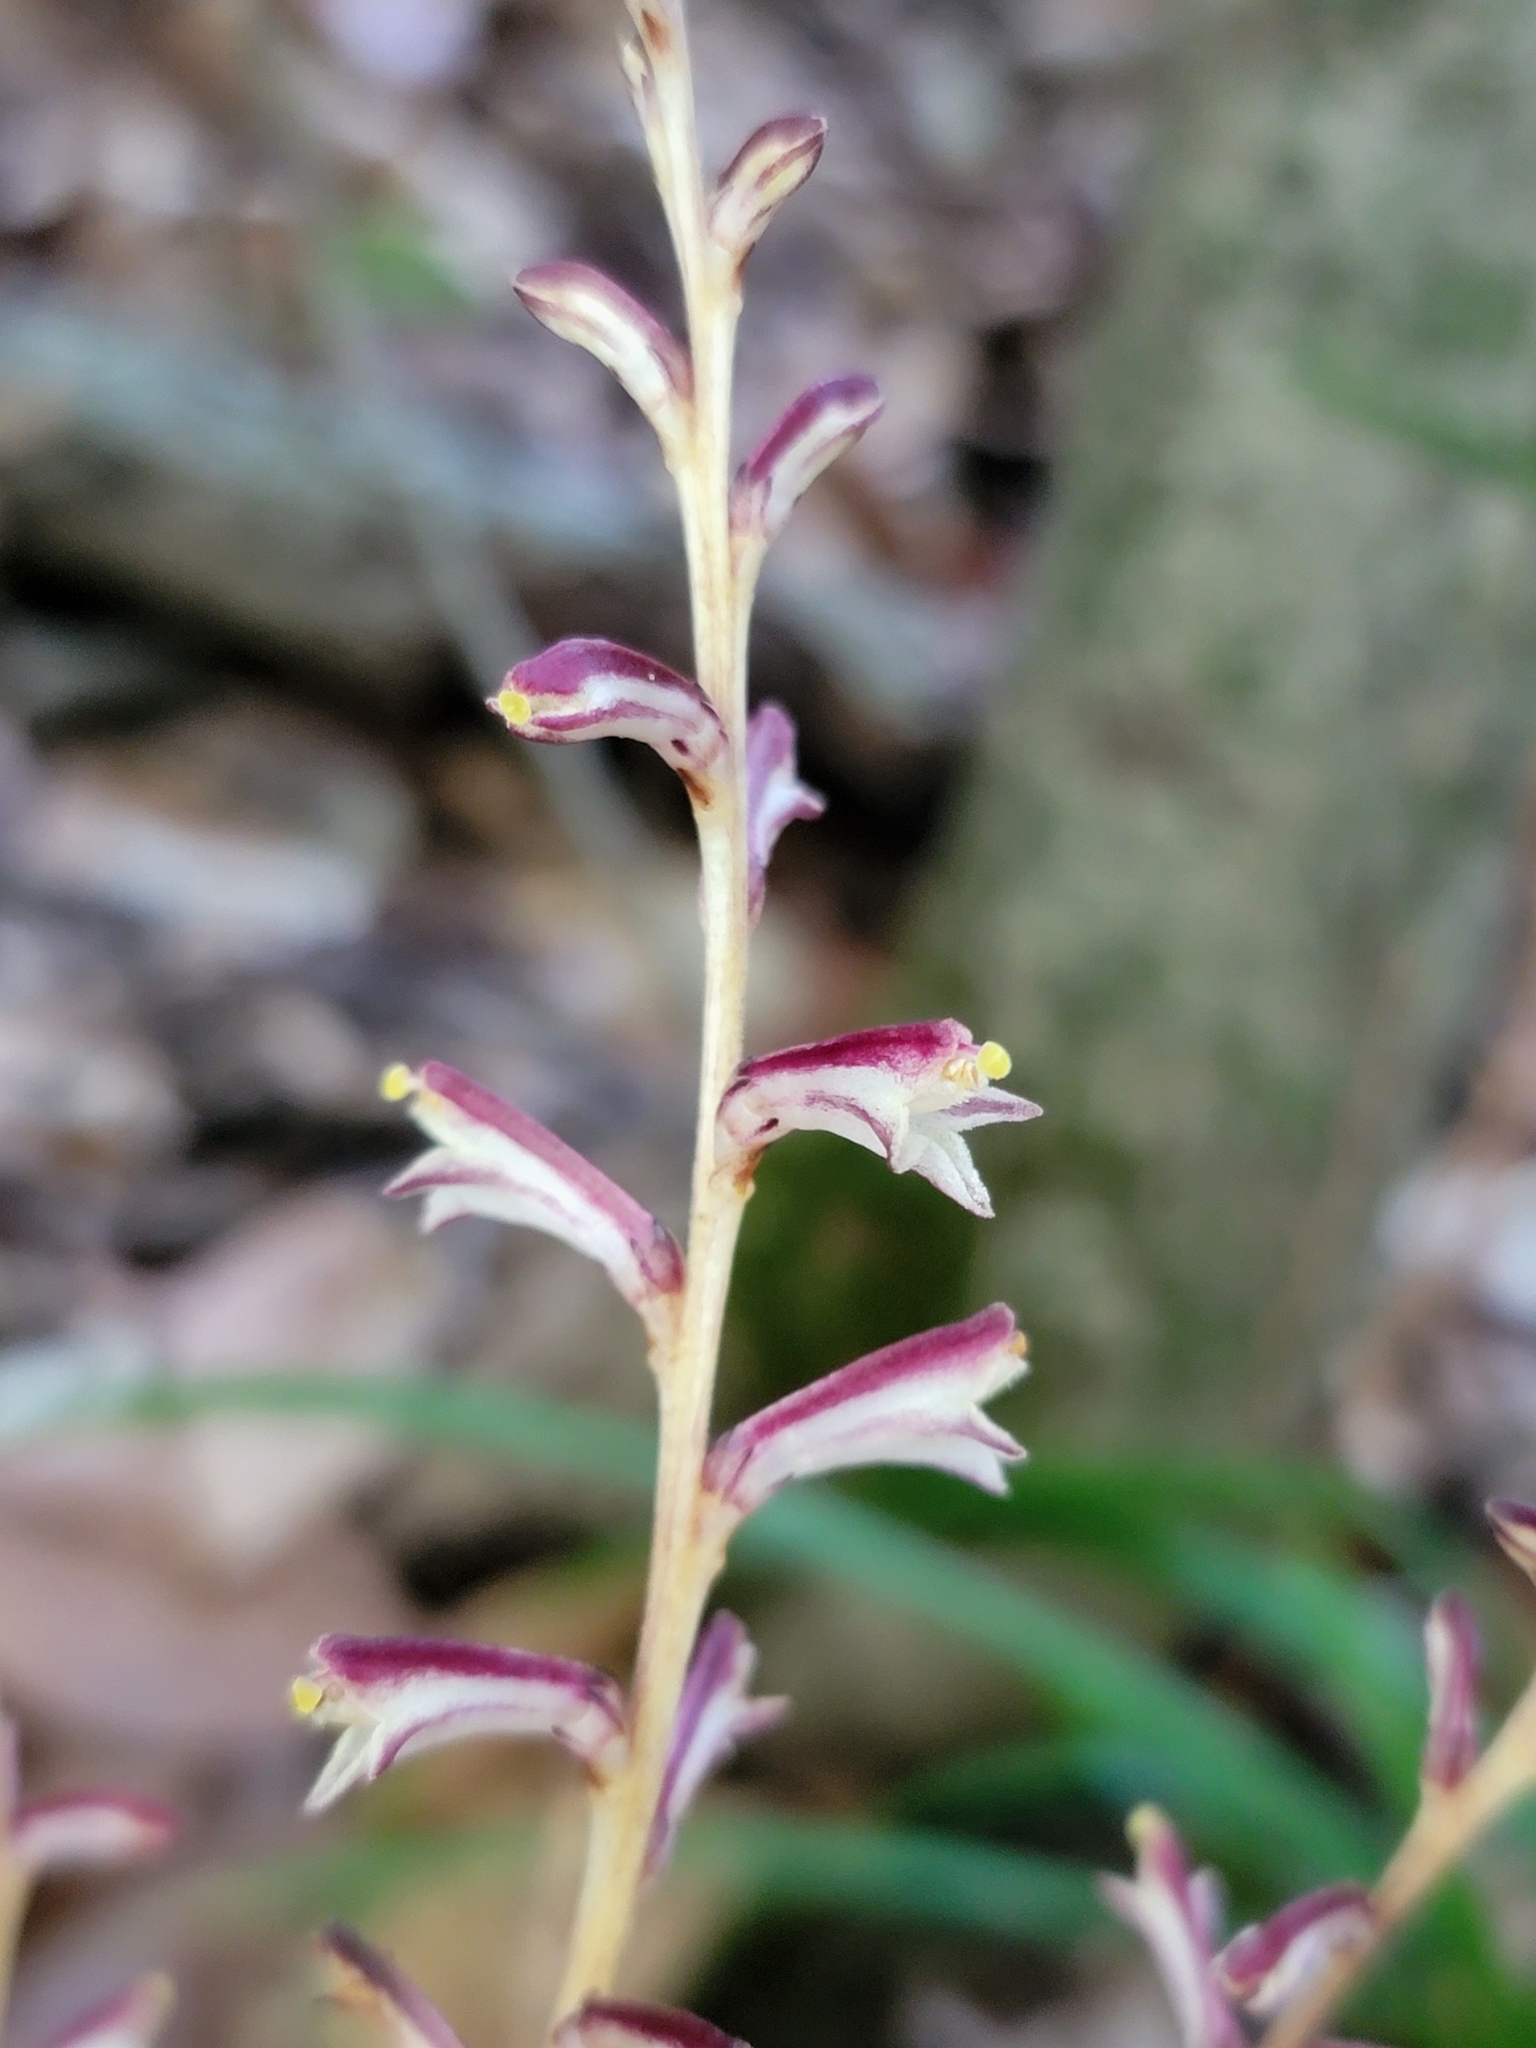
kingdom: Plantae
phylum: Tracheophyta
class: Magnoliopsida
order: Lamiales
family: Orobanchaceae
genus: Epifagus
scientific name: Epifagus virginiana
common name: Beechdrops
